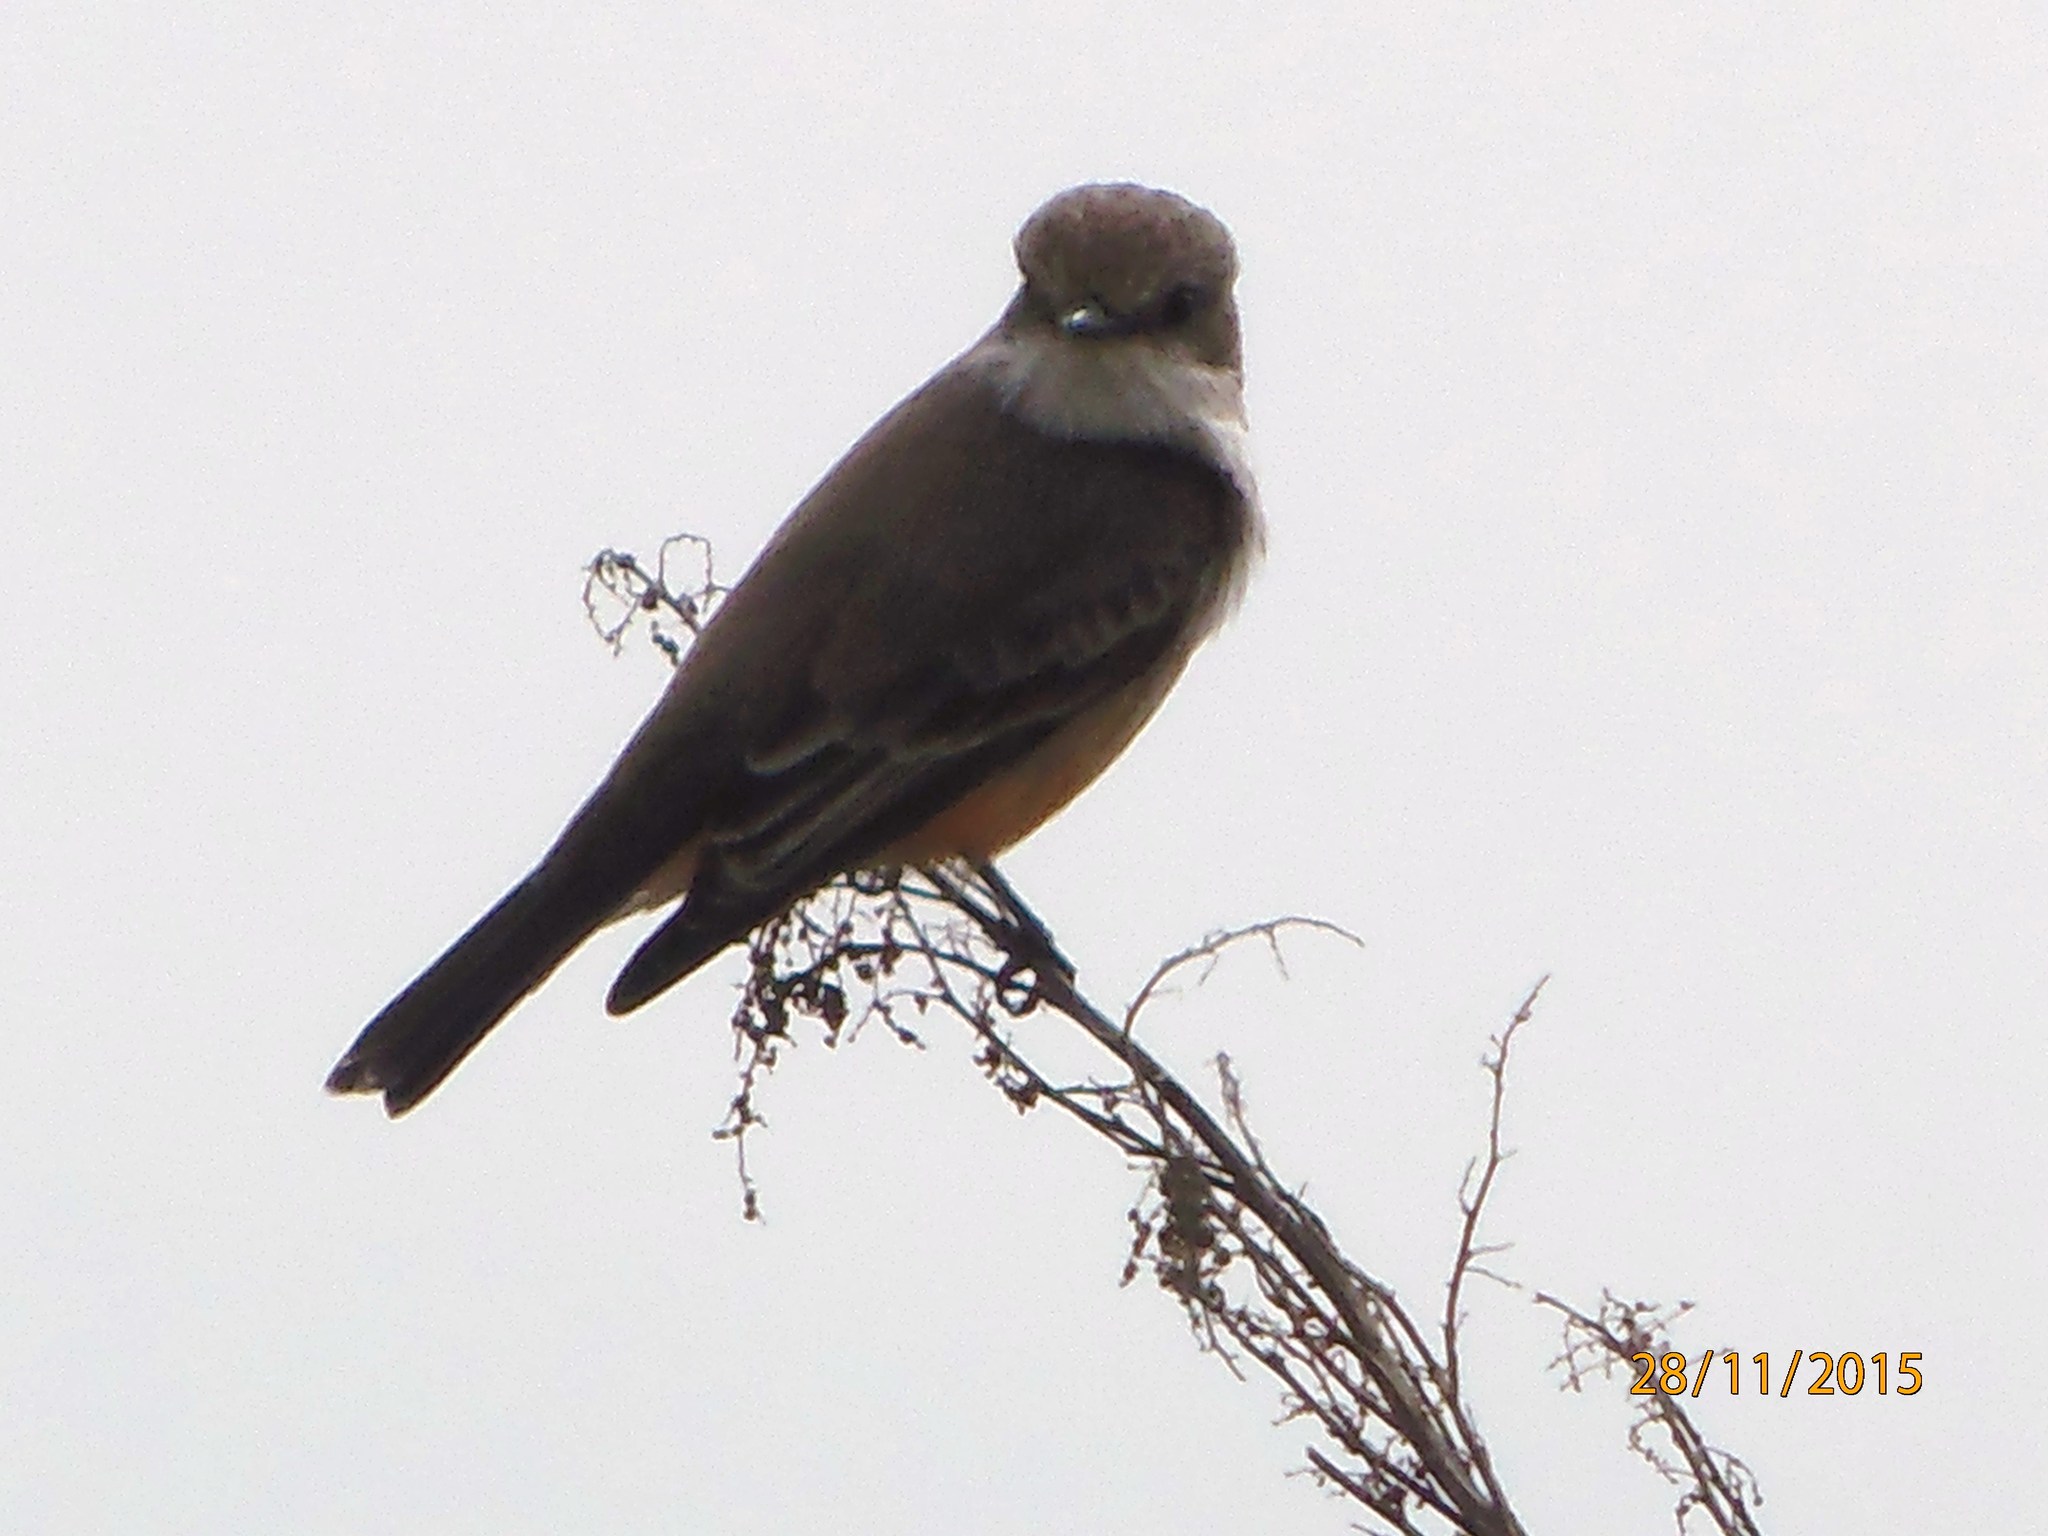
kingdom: Animalia
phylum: Chordata
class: Aves
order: Passeriformes
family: Tyrannidae
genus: Pyrocephalus
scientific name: Pyrocephalus rubinus
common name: Vermilion flycatcher
